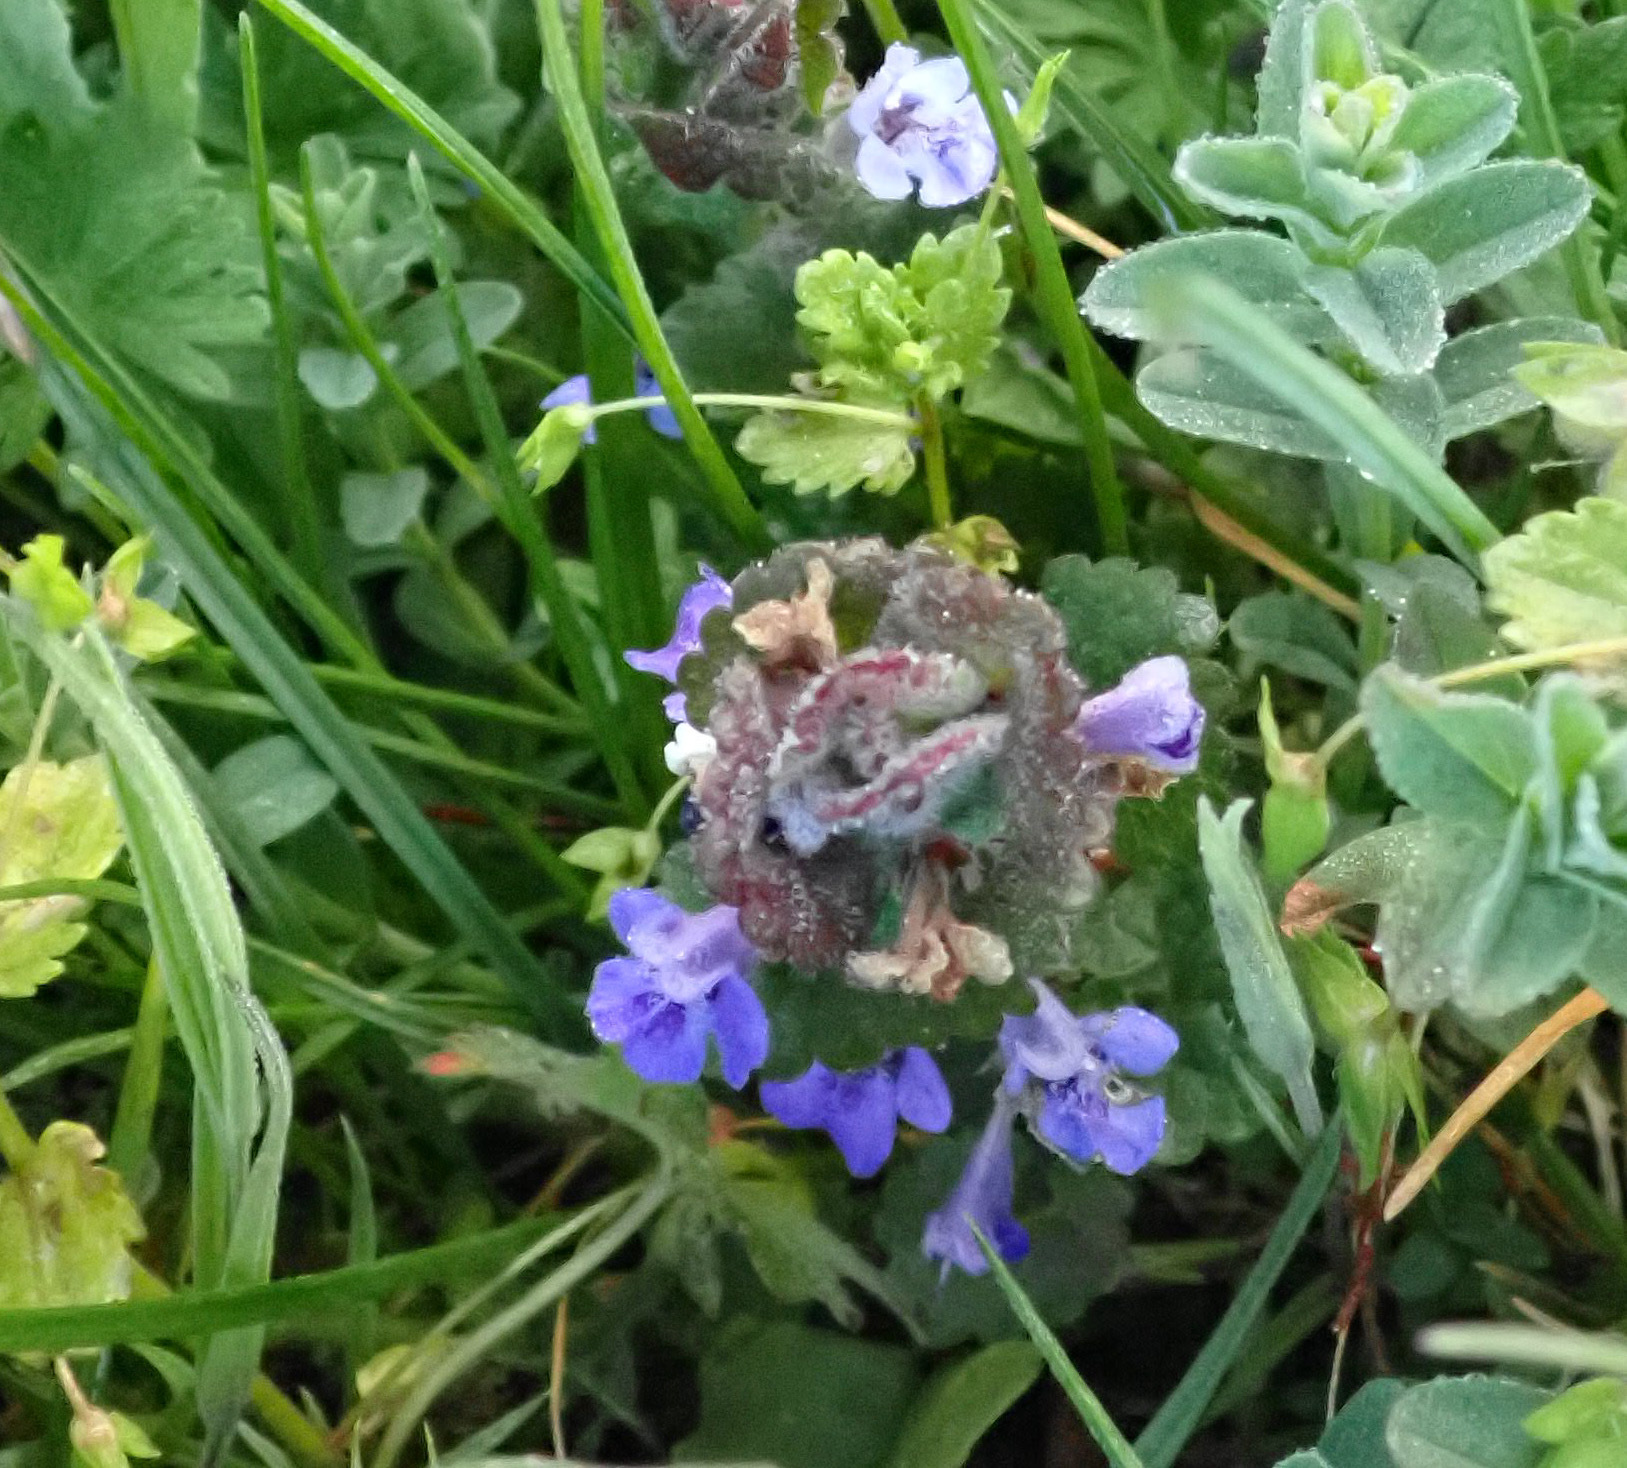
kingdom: Plantae
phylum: Tracheophyta
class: Magnoliopsida
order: Lamiales
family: Lamiaceae
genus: Glechoma
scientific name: Glechoma hederacea
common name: Ground ivy
